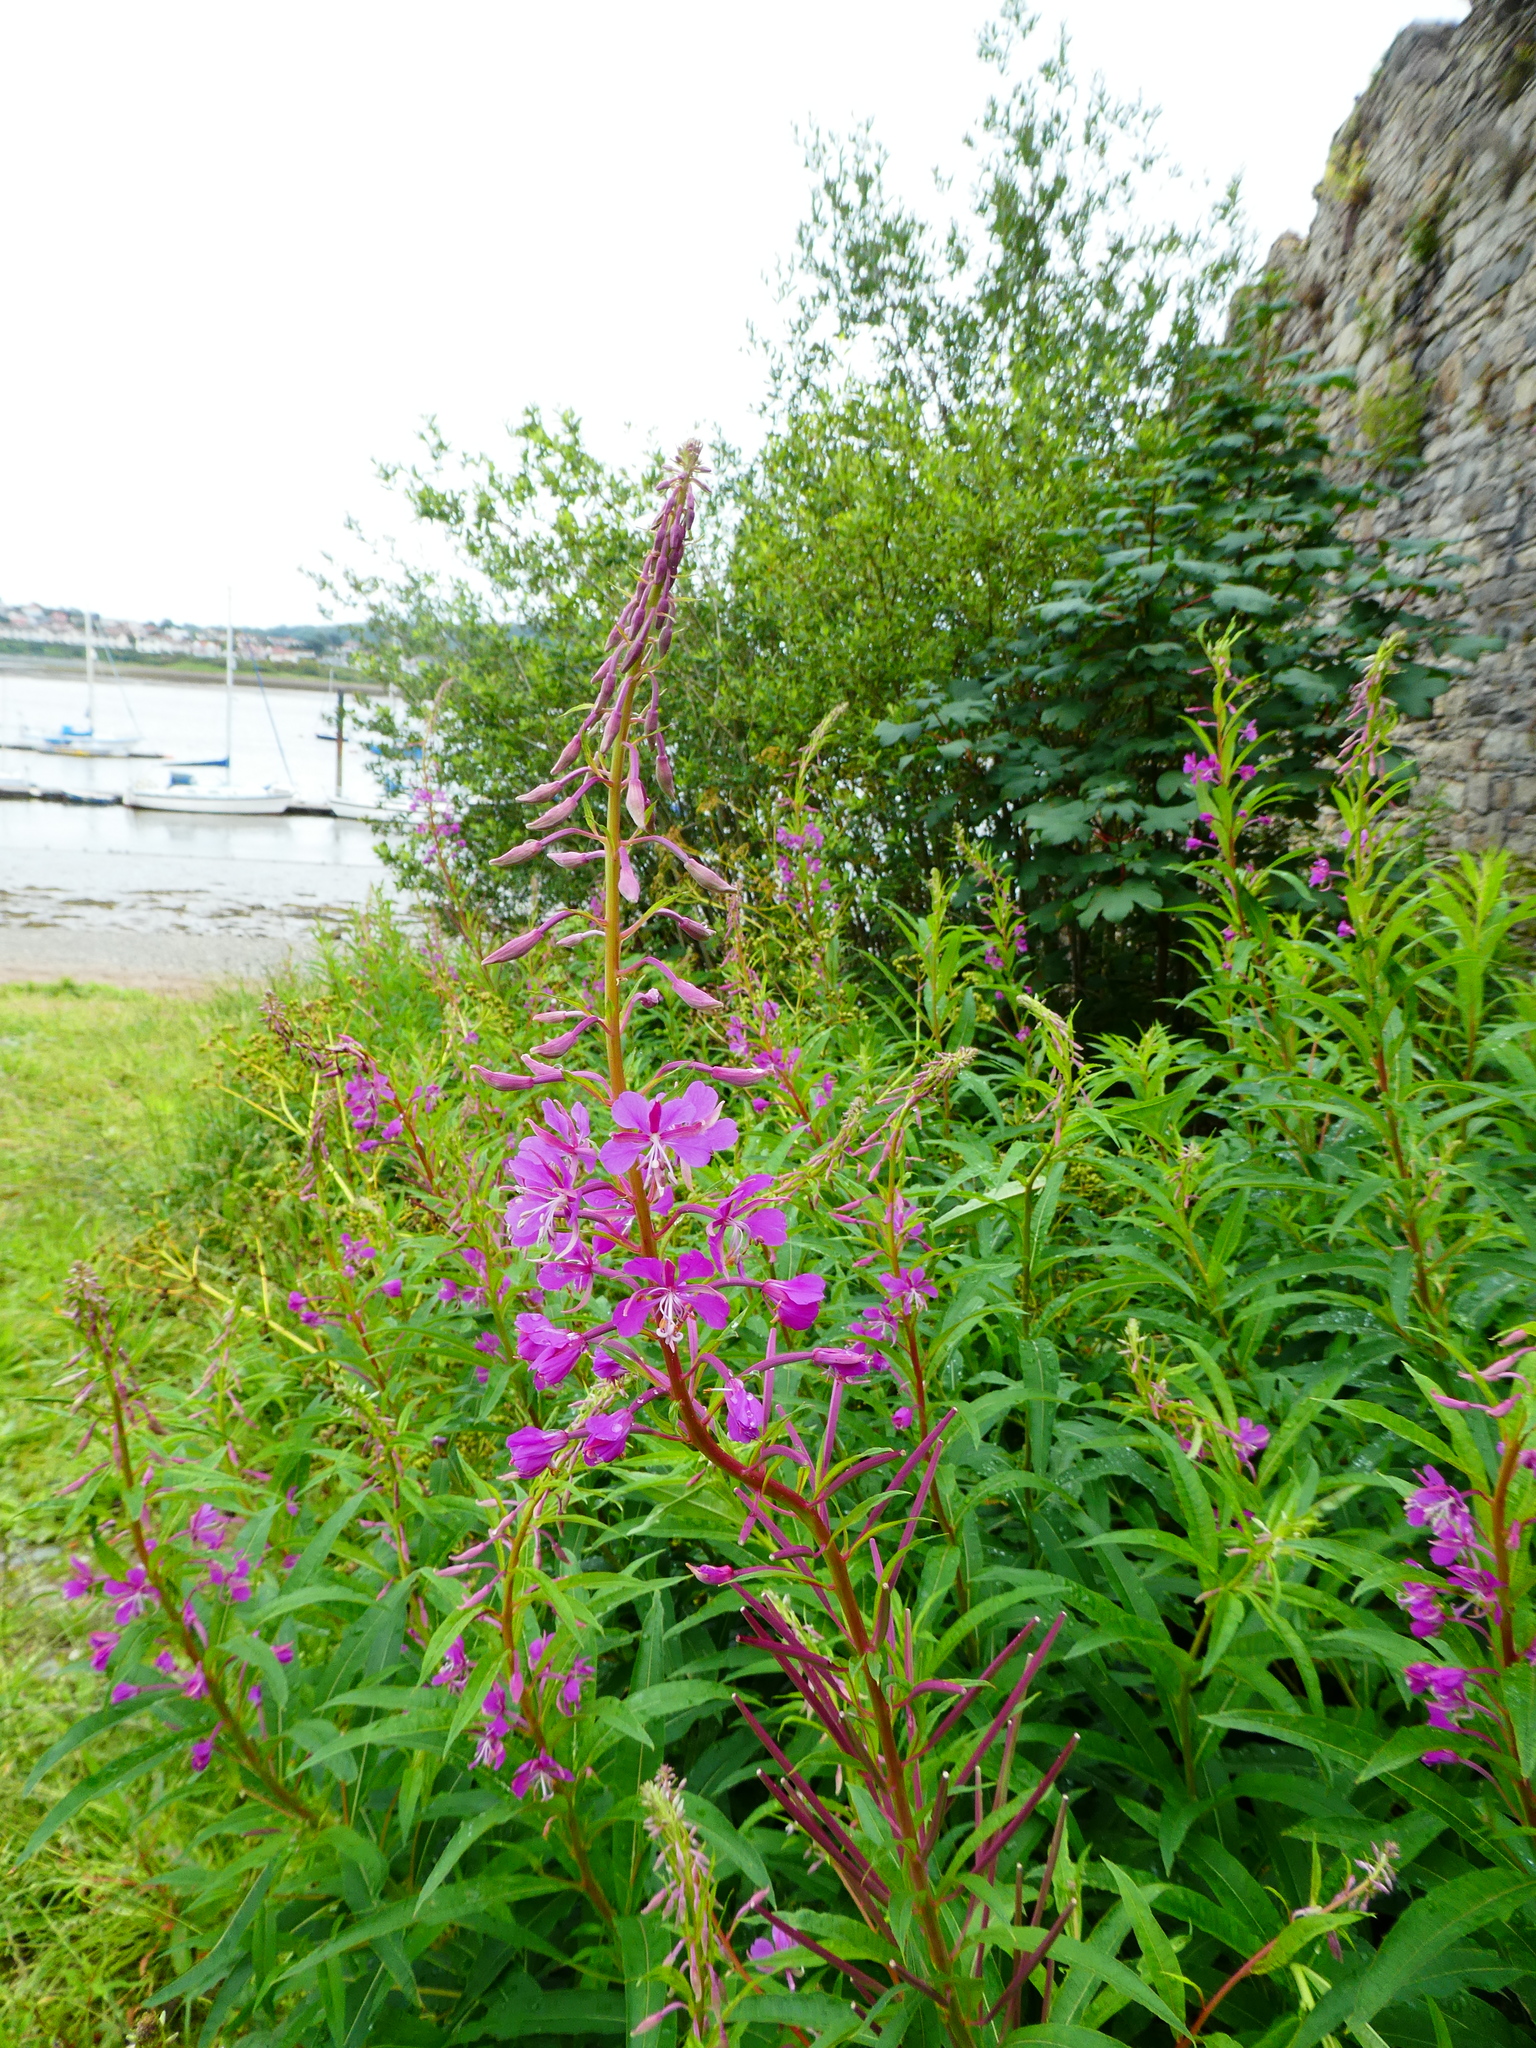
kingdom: Plantae
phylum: Tracheophyta
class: Magnoliopsida
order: Myrtales
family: Onagraceae
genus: Chamaenerion
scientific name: Chamaenerion angustifolium
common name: Fireweed
